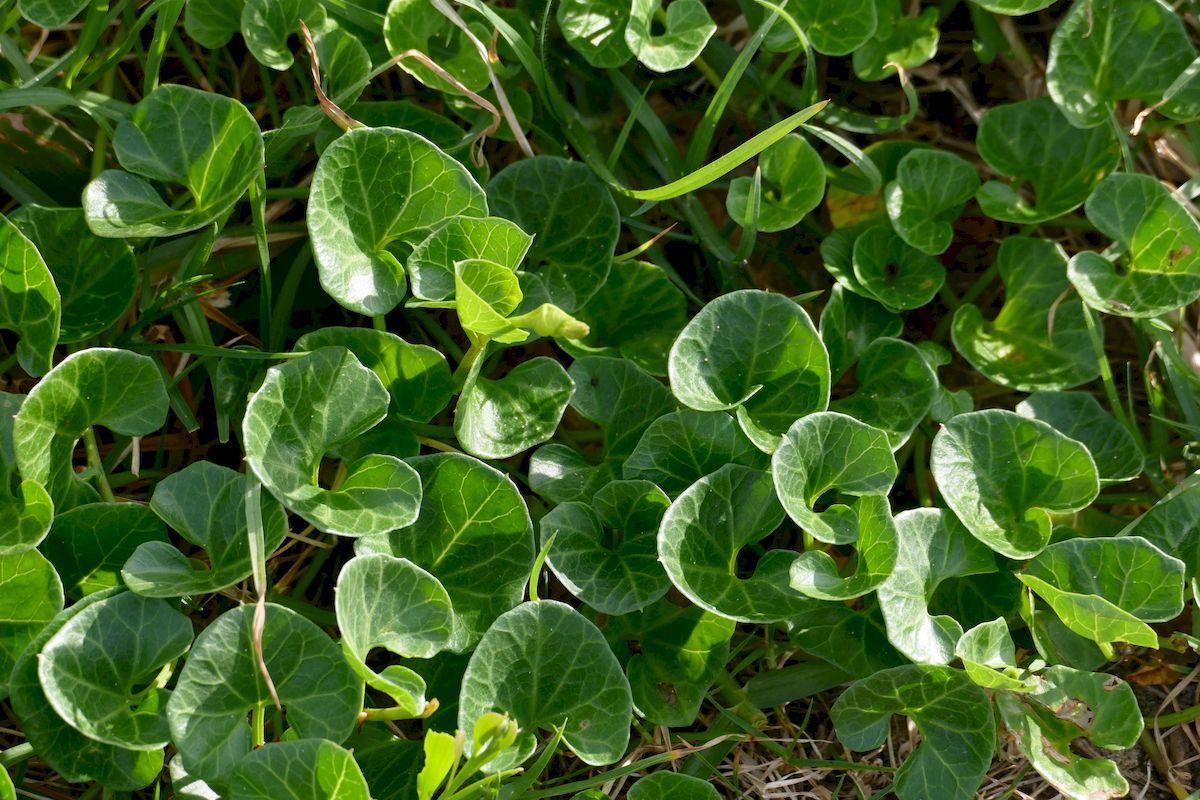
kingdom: Plantae
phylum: Tracheophyta
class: Magnoliopsida
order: Solanales
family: Convolvulaceae
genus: Calystegia
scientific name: Calystegia soldanella
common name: Sea bindweed
